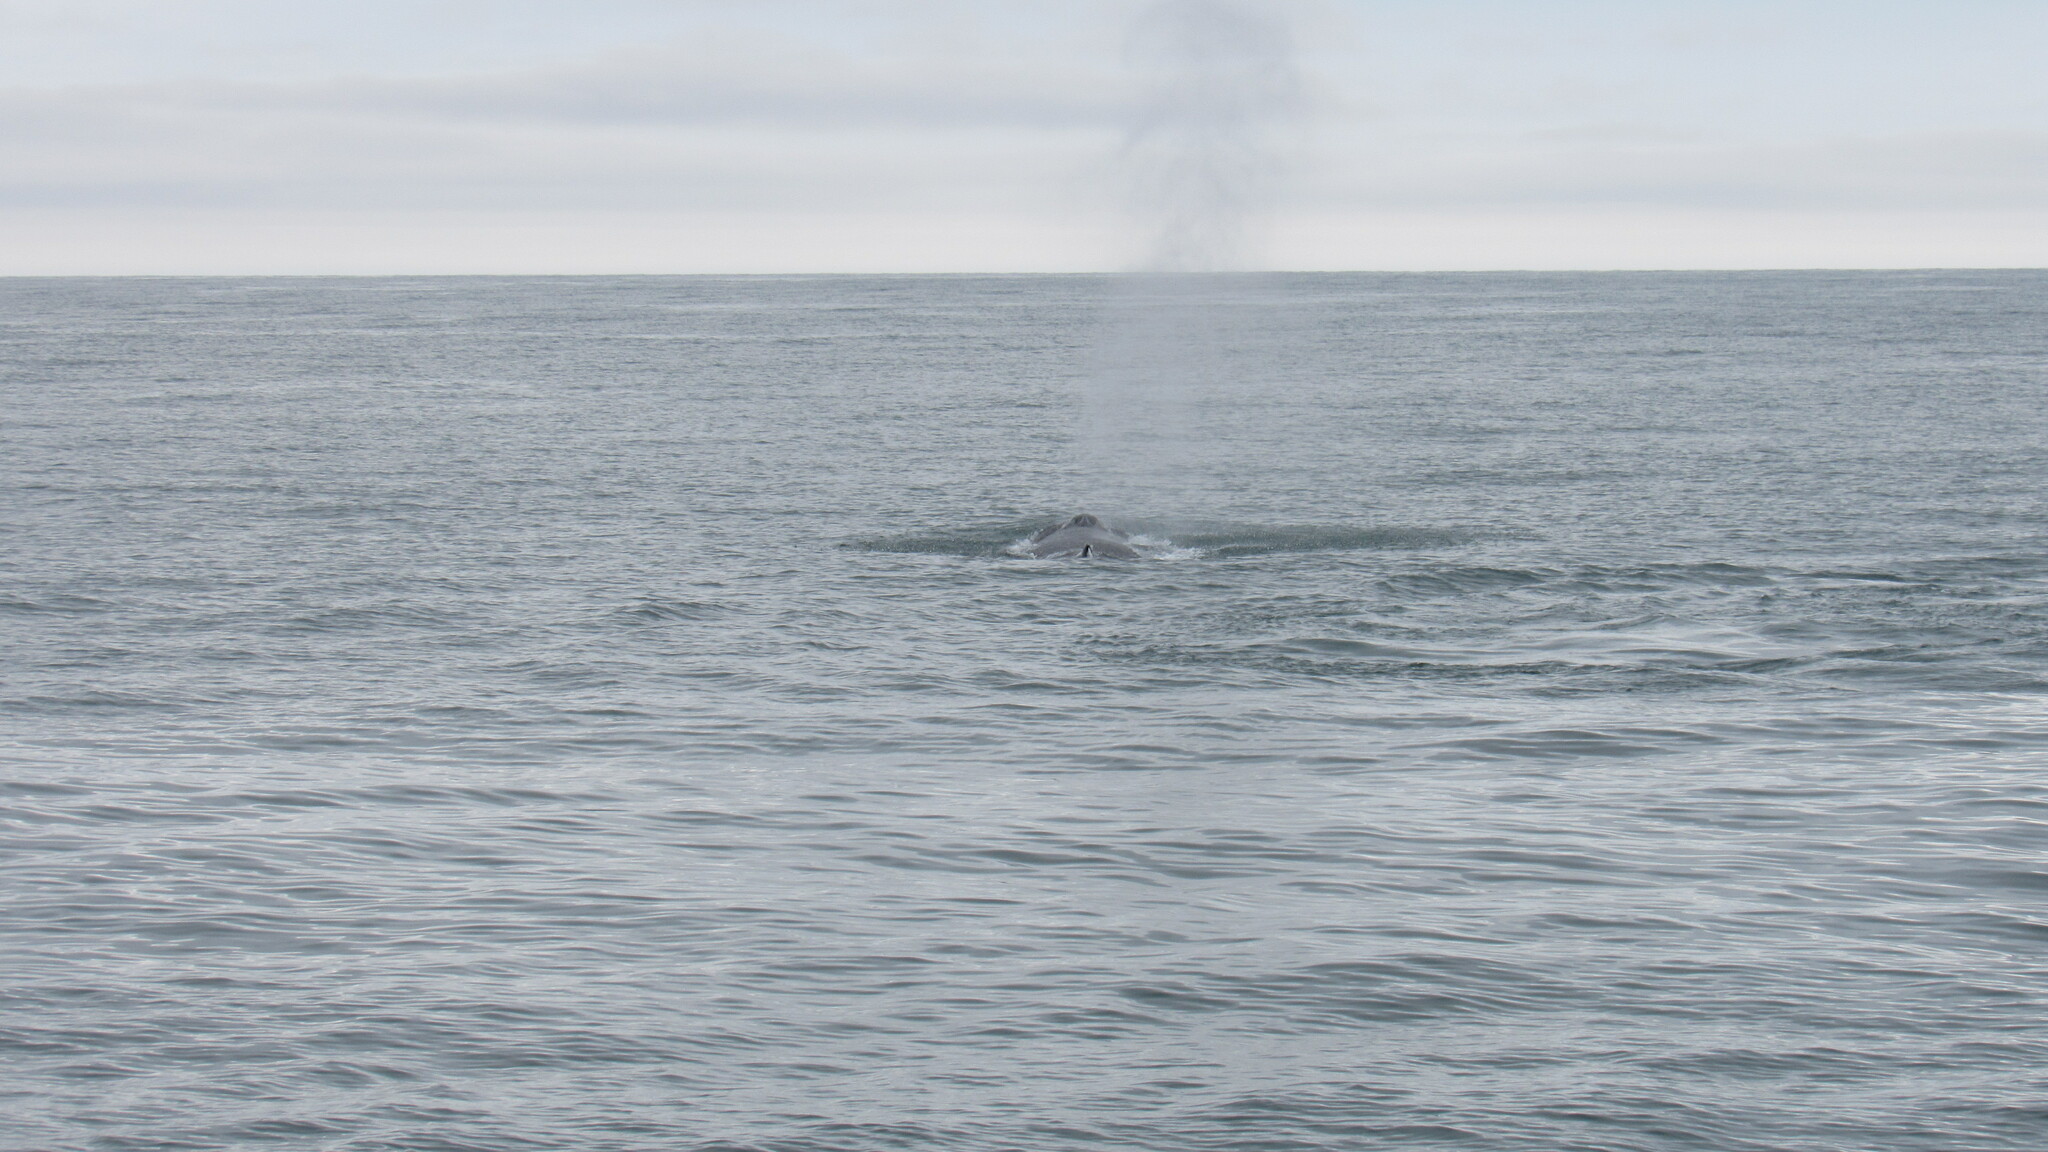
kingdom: Animalia
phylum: Chordata
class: Mammalia
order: Cetacea
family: Balaenopteridae
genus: Megaptera
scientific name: Megaptera novaeangliae
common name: Humpback whale
